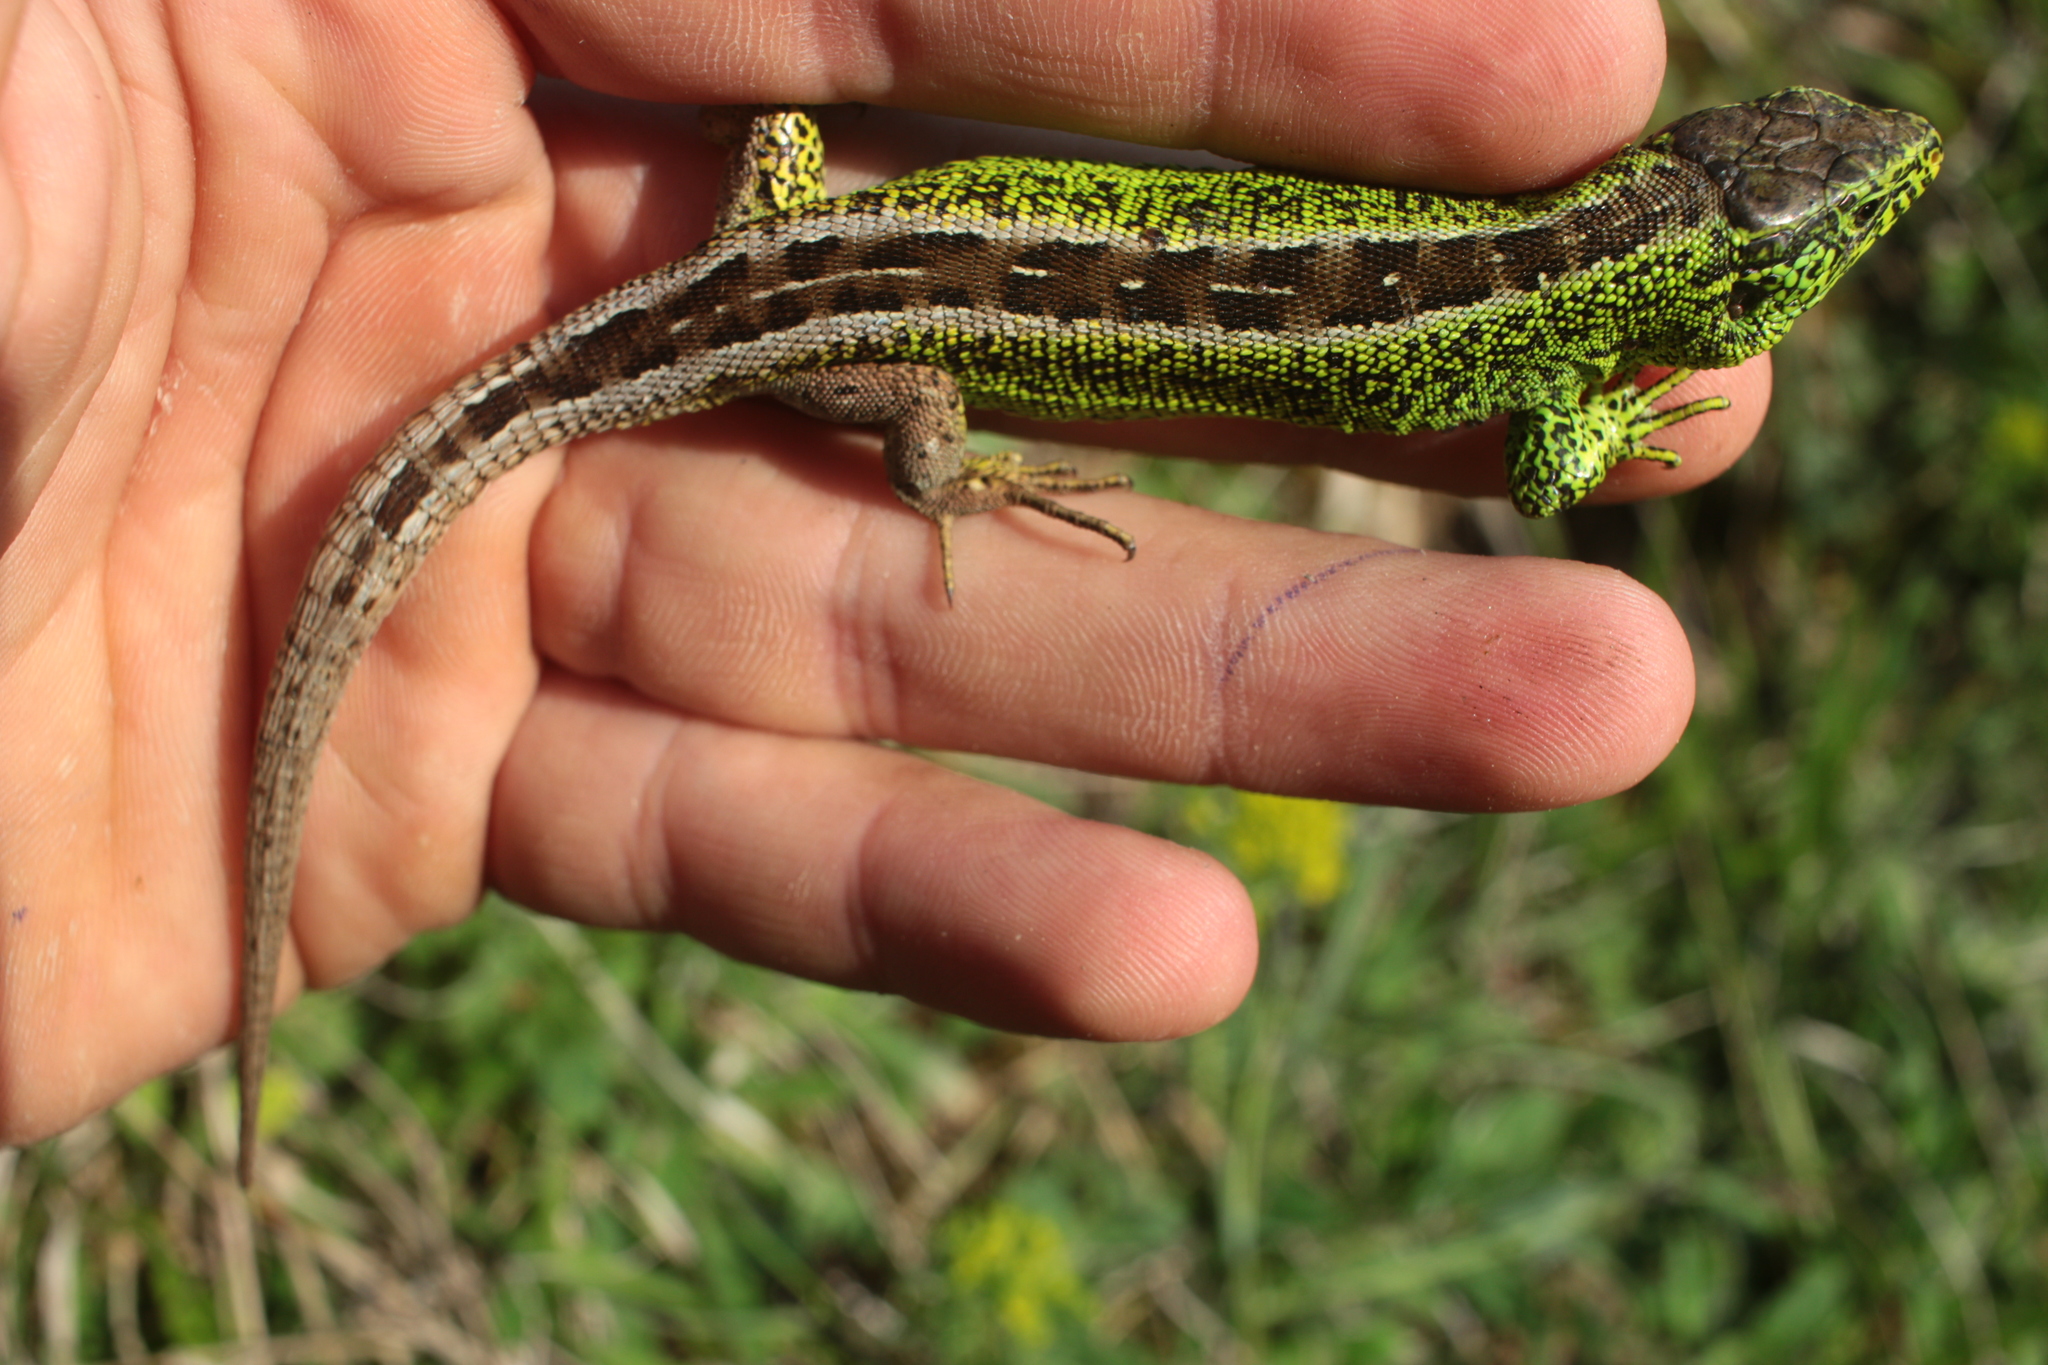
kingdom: Animalia
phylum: Chordata
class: Squamata
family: Lacertidae
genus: Lacerta
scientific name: Lacerta agilis
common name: Sand lizard
